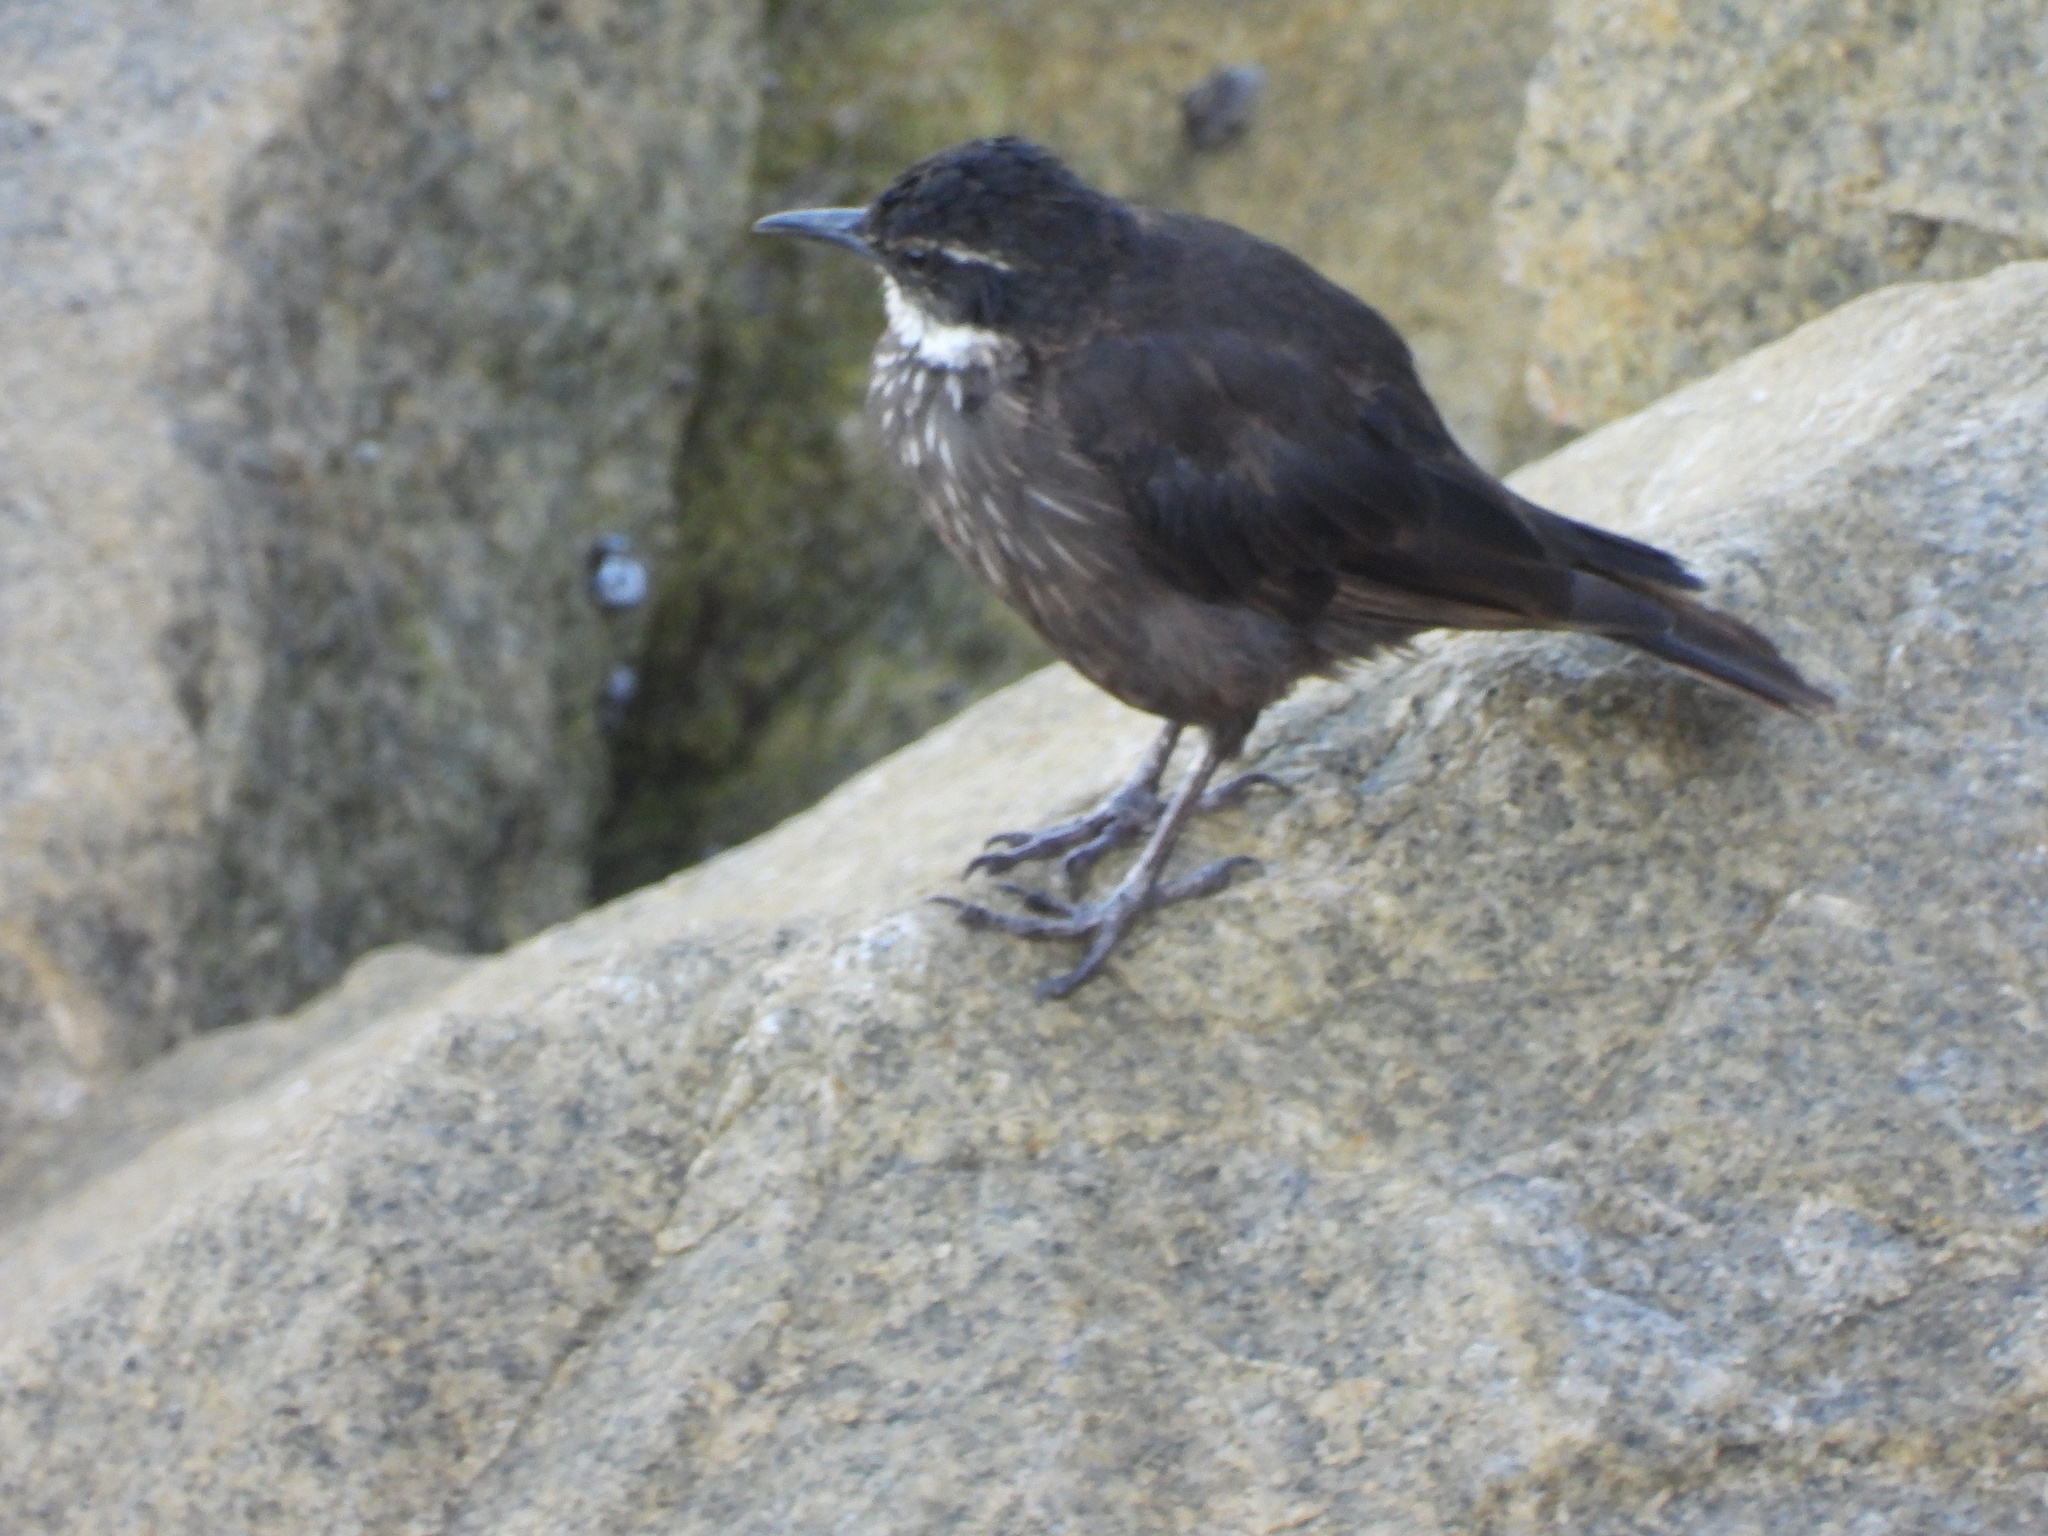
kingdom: Animalia
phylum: Chordata
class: Aves
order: Passeriformes
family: Furnariidae
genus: Cinclodes
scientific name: Cinclodes nigrofumosus
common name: Chilean seaside cinclodes
